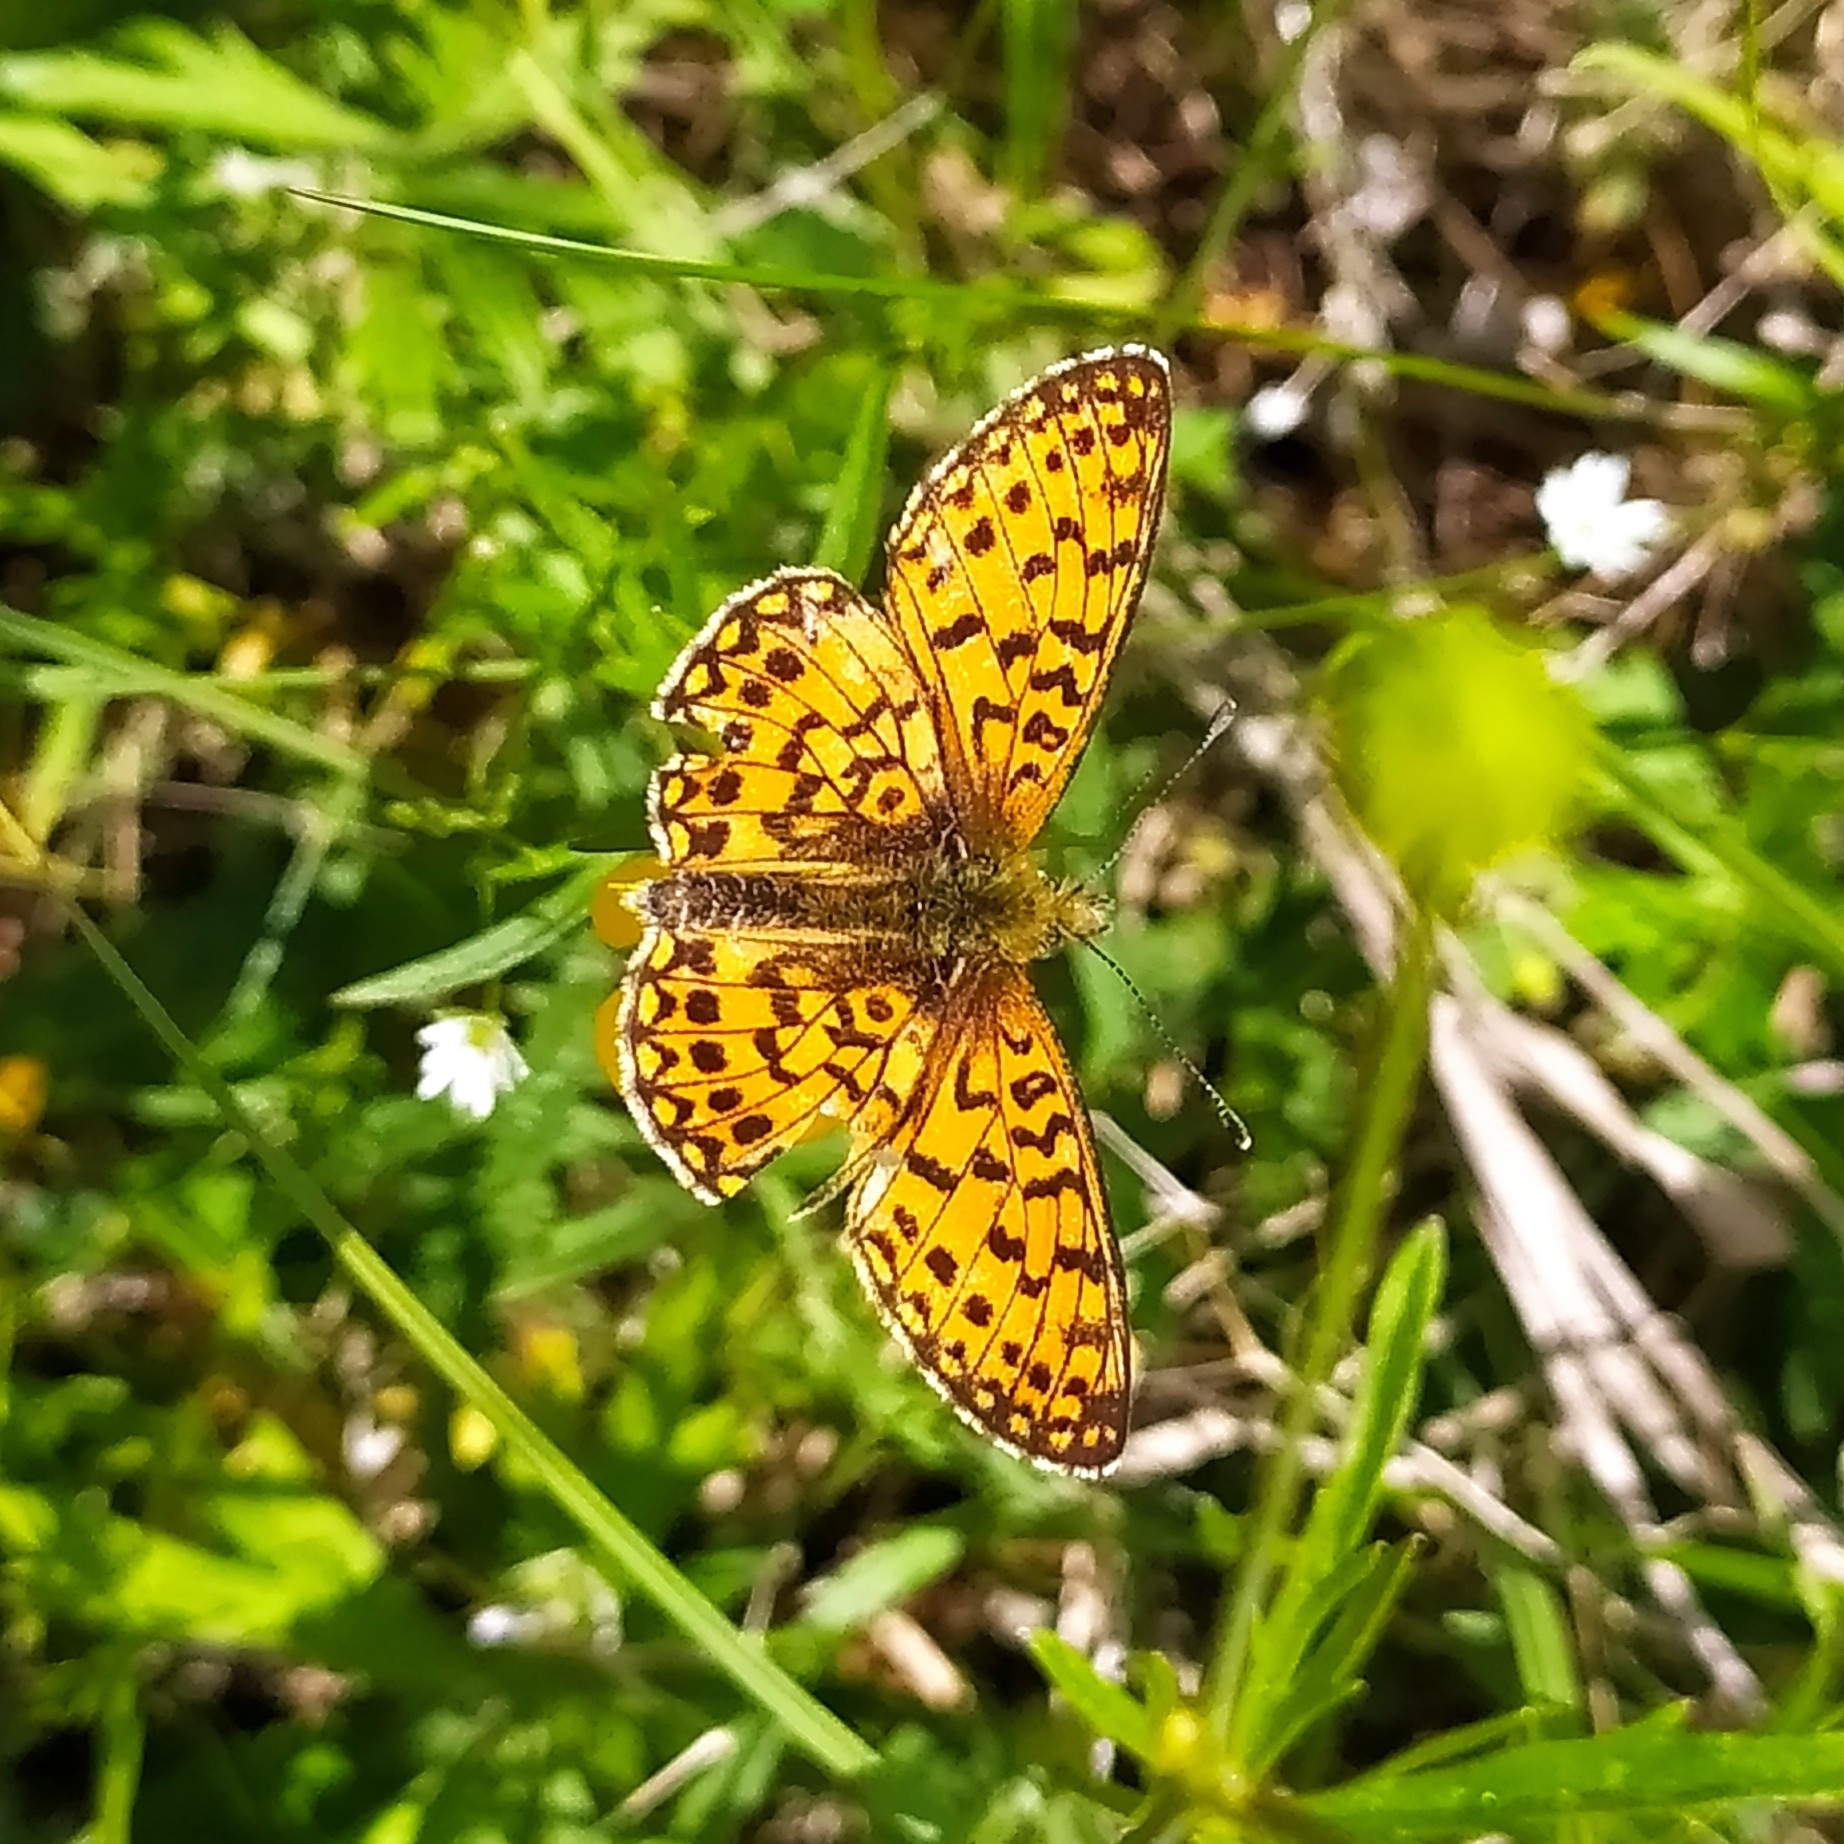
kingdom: Animalia
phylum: Arthropoda
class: Insecta
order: Lepidoptera
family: Nymphalidae
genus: Boloria
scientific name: Boloria selene
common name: Small pearl-bordered fritillary
